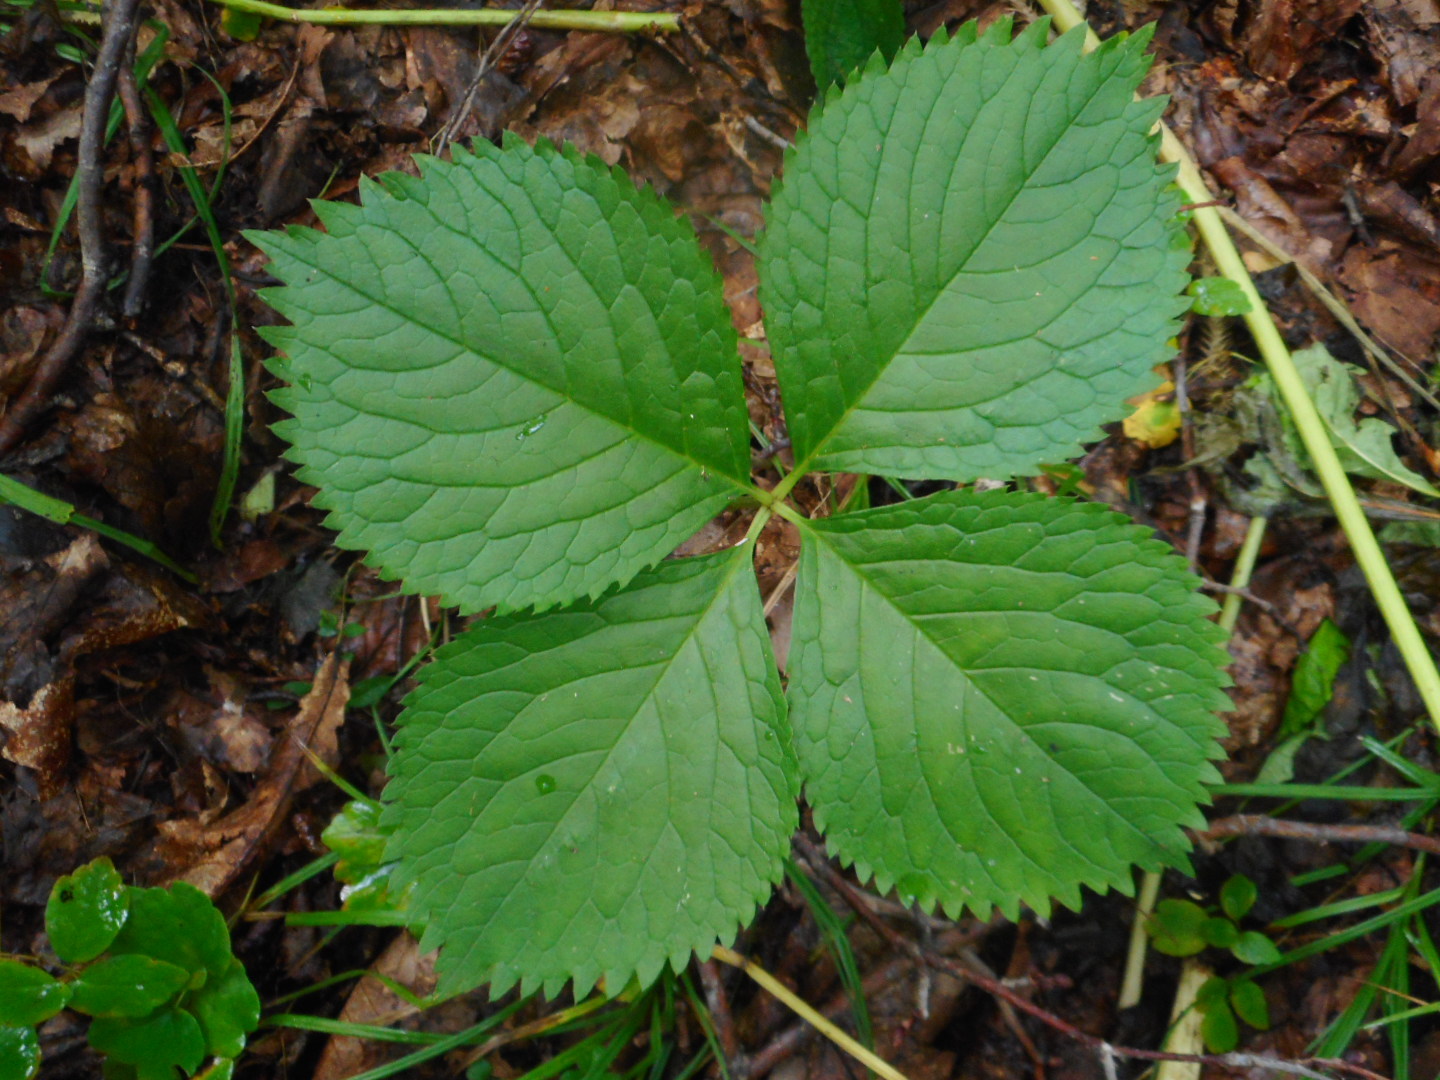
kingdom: Plantae
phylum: Tracheophyta
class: Magnoliopsida
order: Chloranthales
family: Chloranthaceae
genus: Chloranthus
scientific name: Chloranthus quadrifolius
